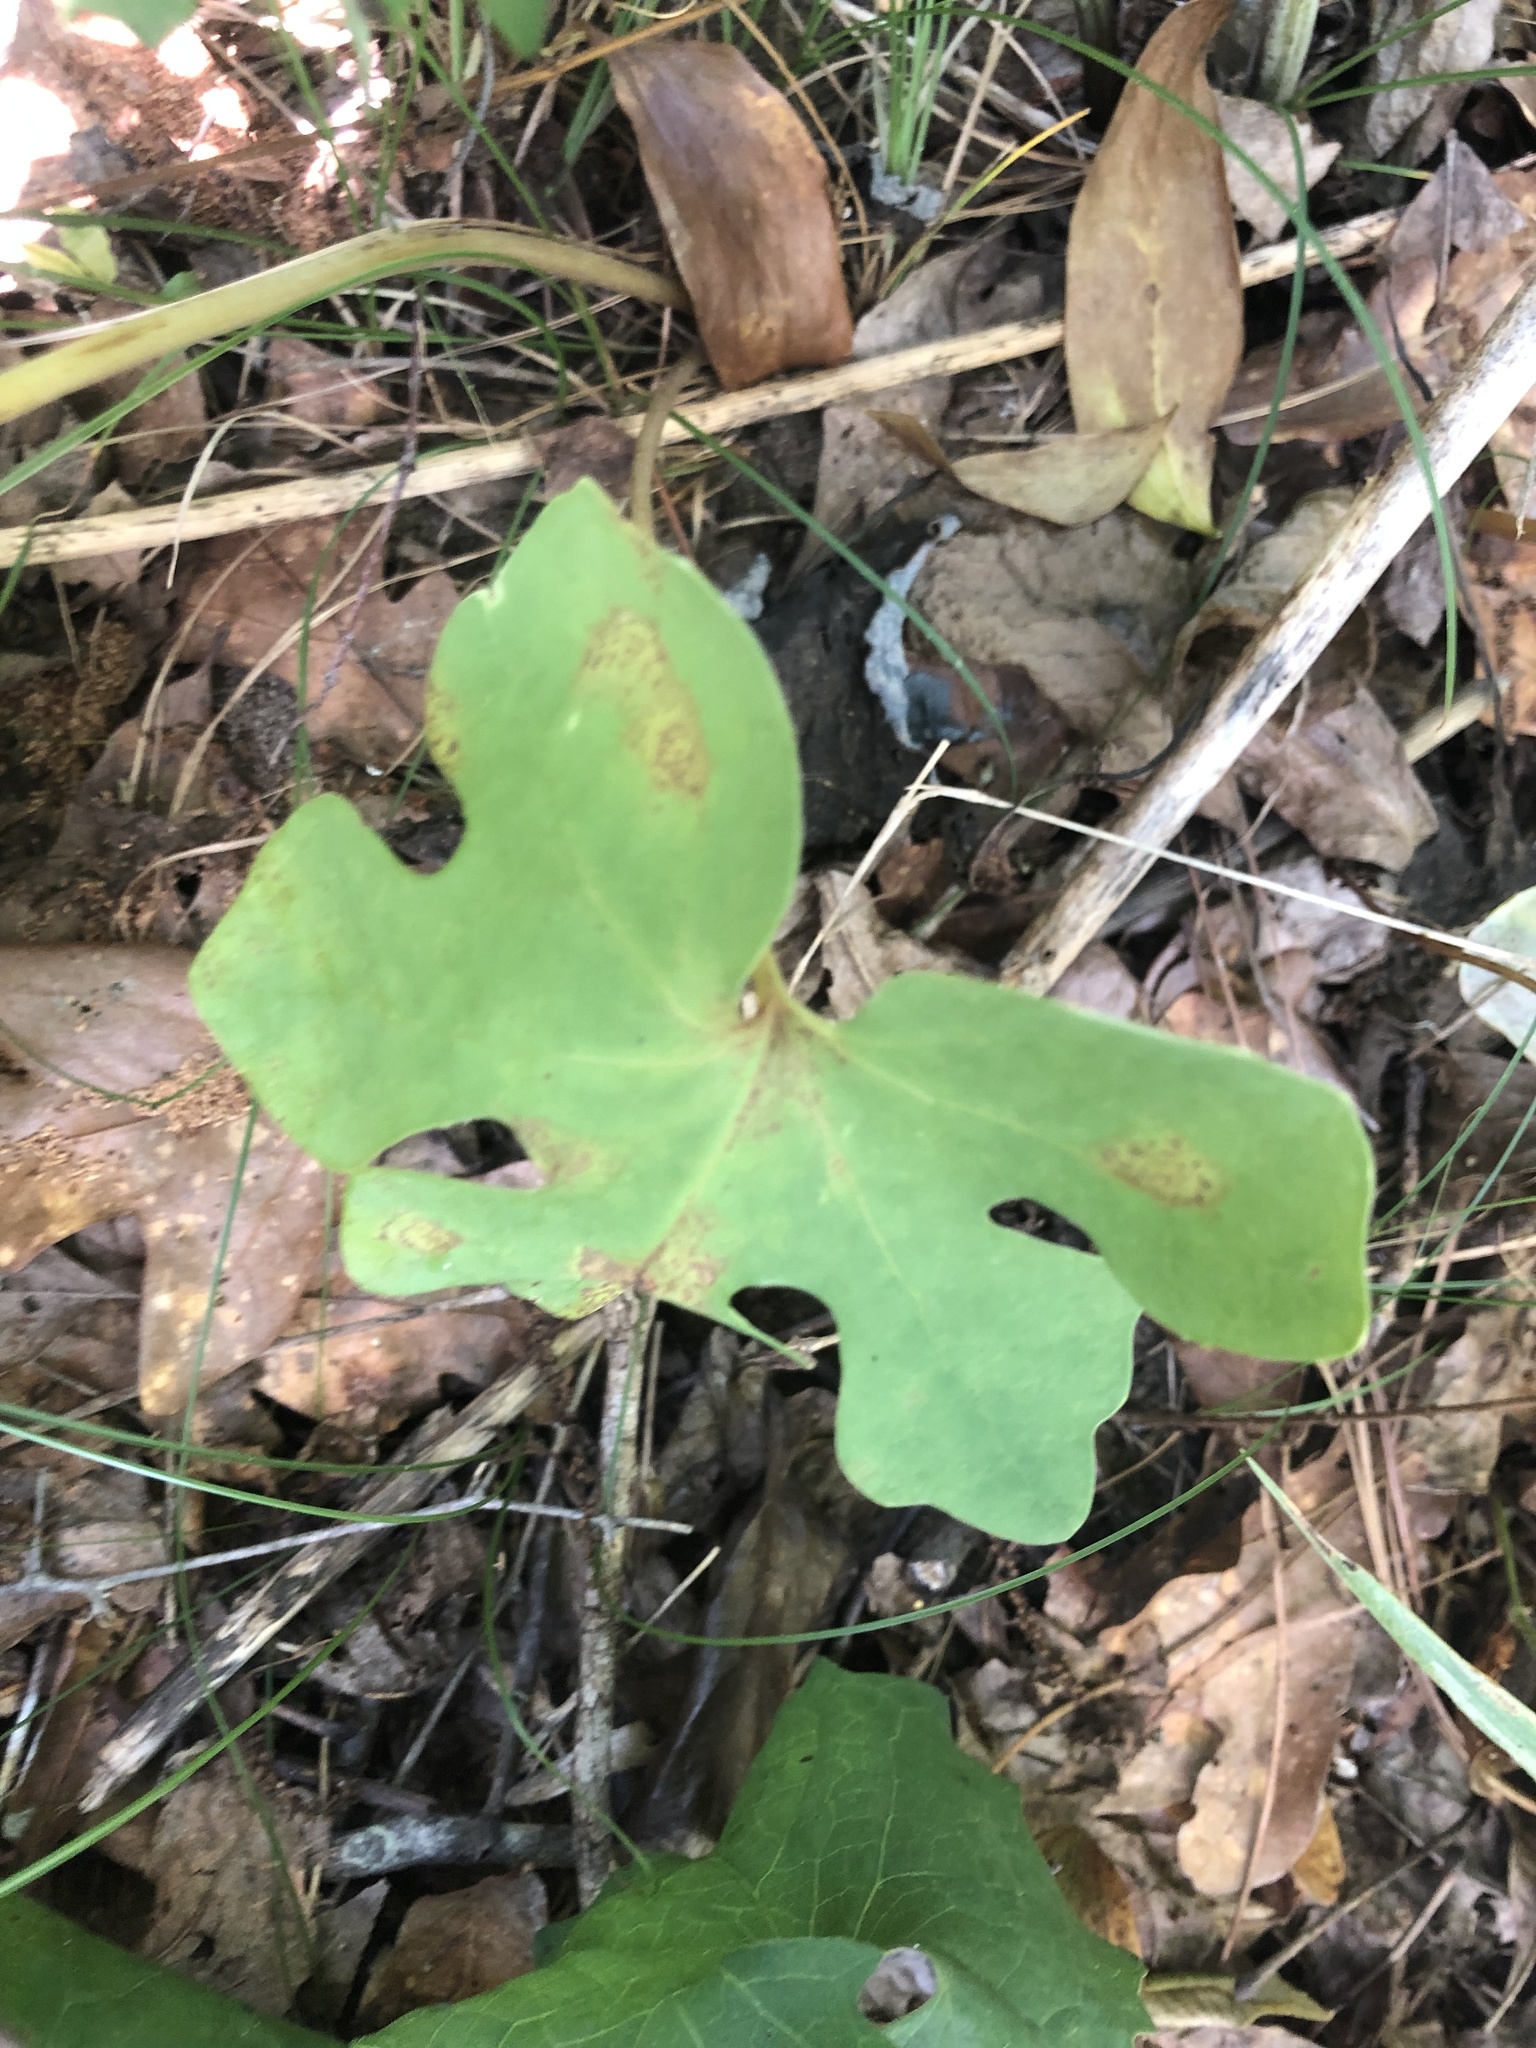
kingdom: Plantae
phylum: Tracheophyta
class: Magnoliopsida
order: Ranunculales
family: Papaveraceae
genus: Sanguinaria
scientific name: Sanguinaria canadensis
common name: Bloodroot
